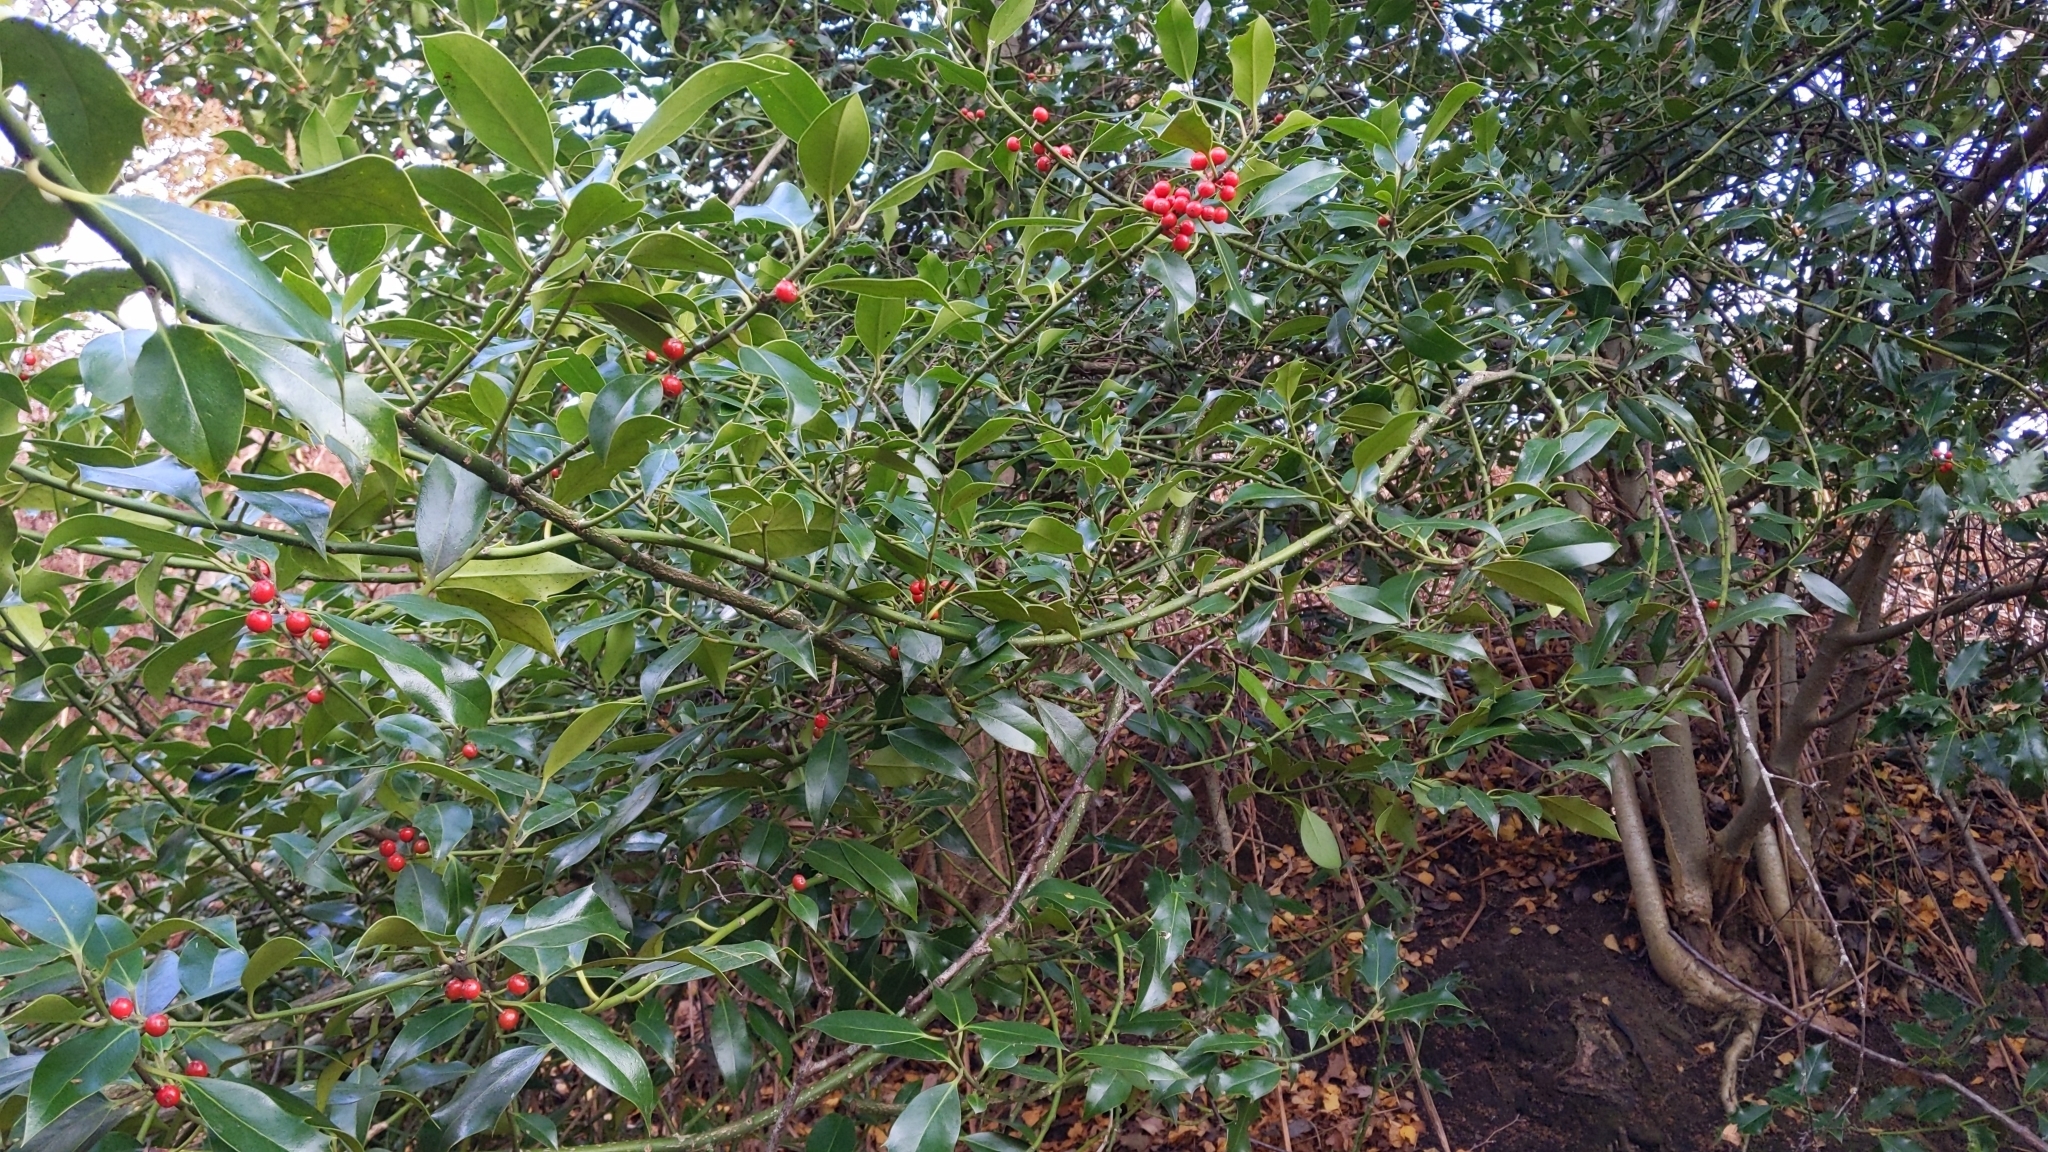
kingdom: Plantae
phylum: Tracheophyta
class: Magnoliopsida
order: Aquifoliales
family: Aquifoliaceae
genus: Ilex
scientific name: Ilex aquifolium
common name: English holly
